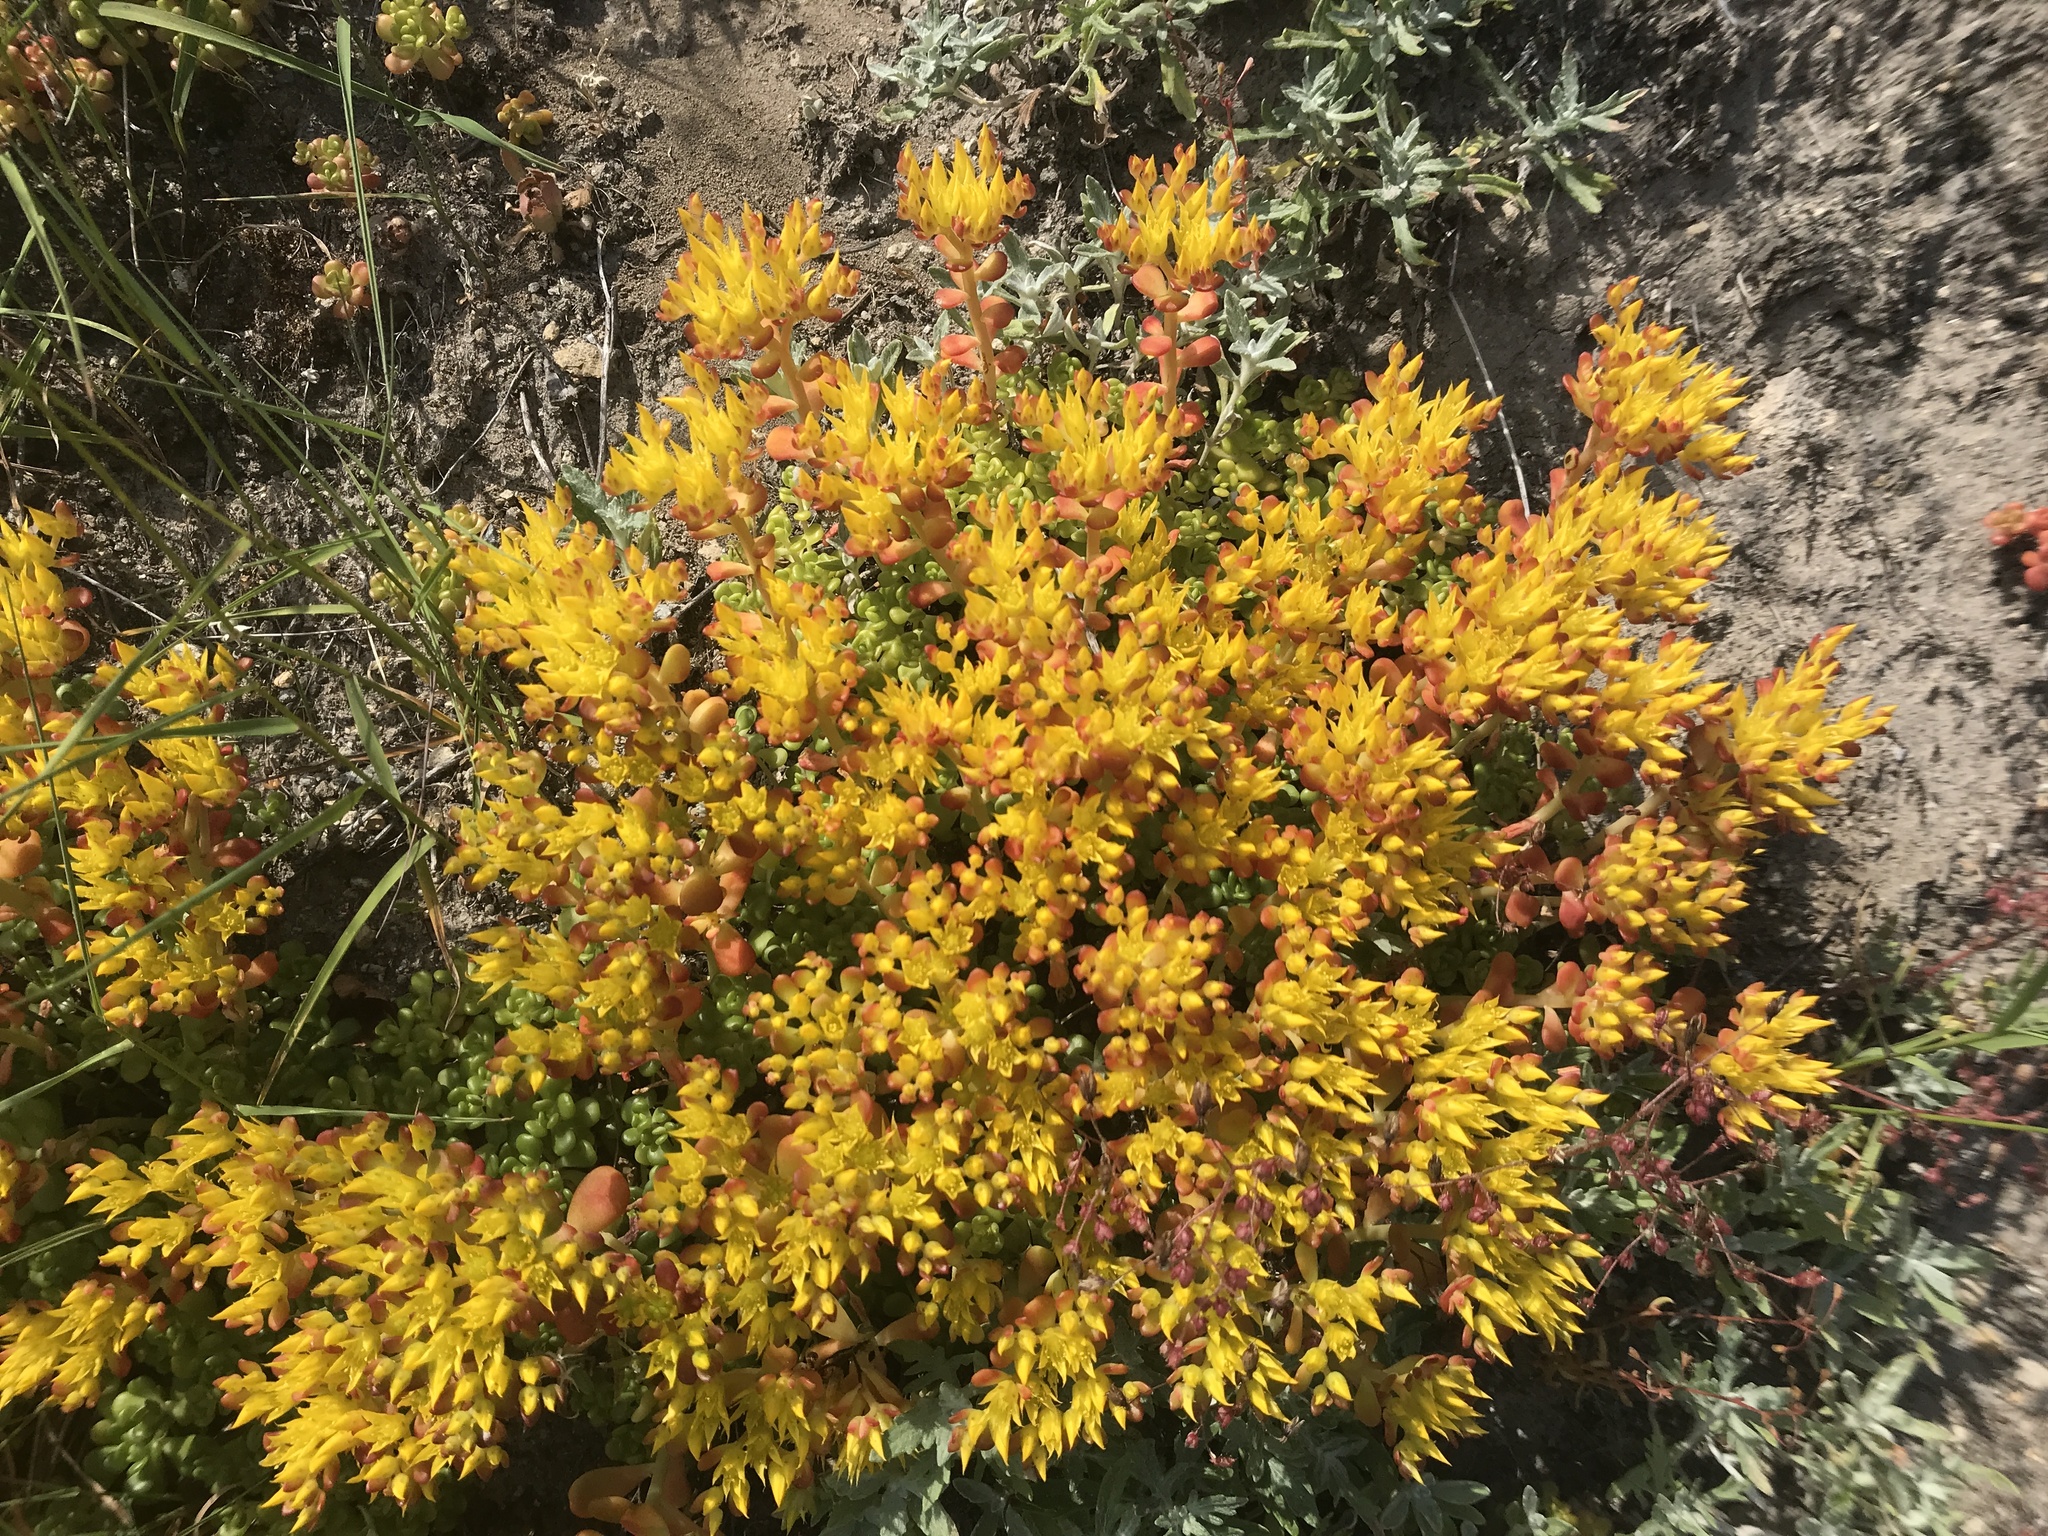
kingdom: Plantae
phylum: Tracheophyta
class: Magnoliopsida
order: Saxifragales
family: Crassulaceae
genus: Sedum
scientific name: Sedum oreganum
